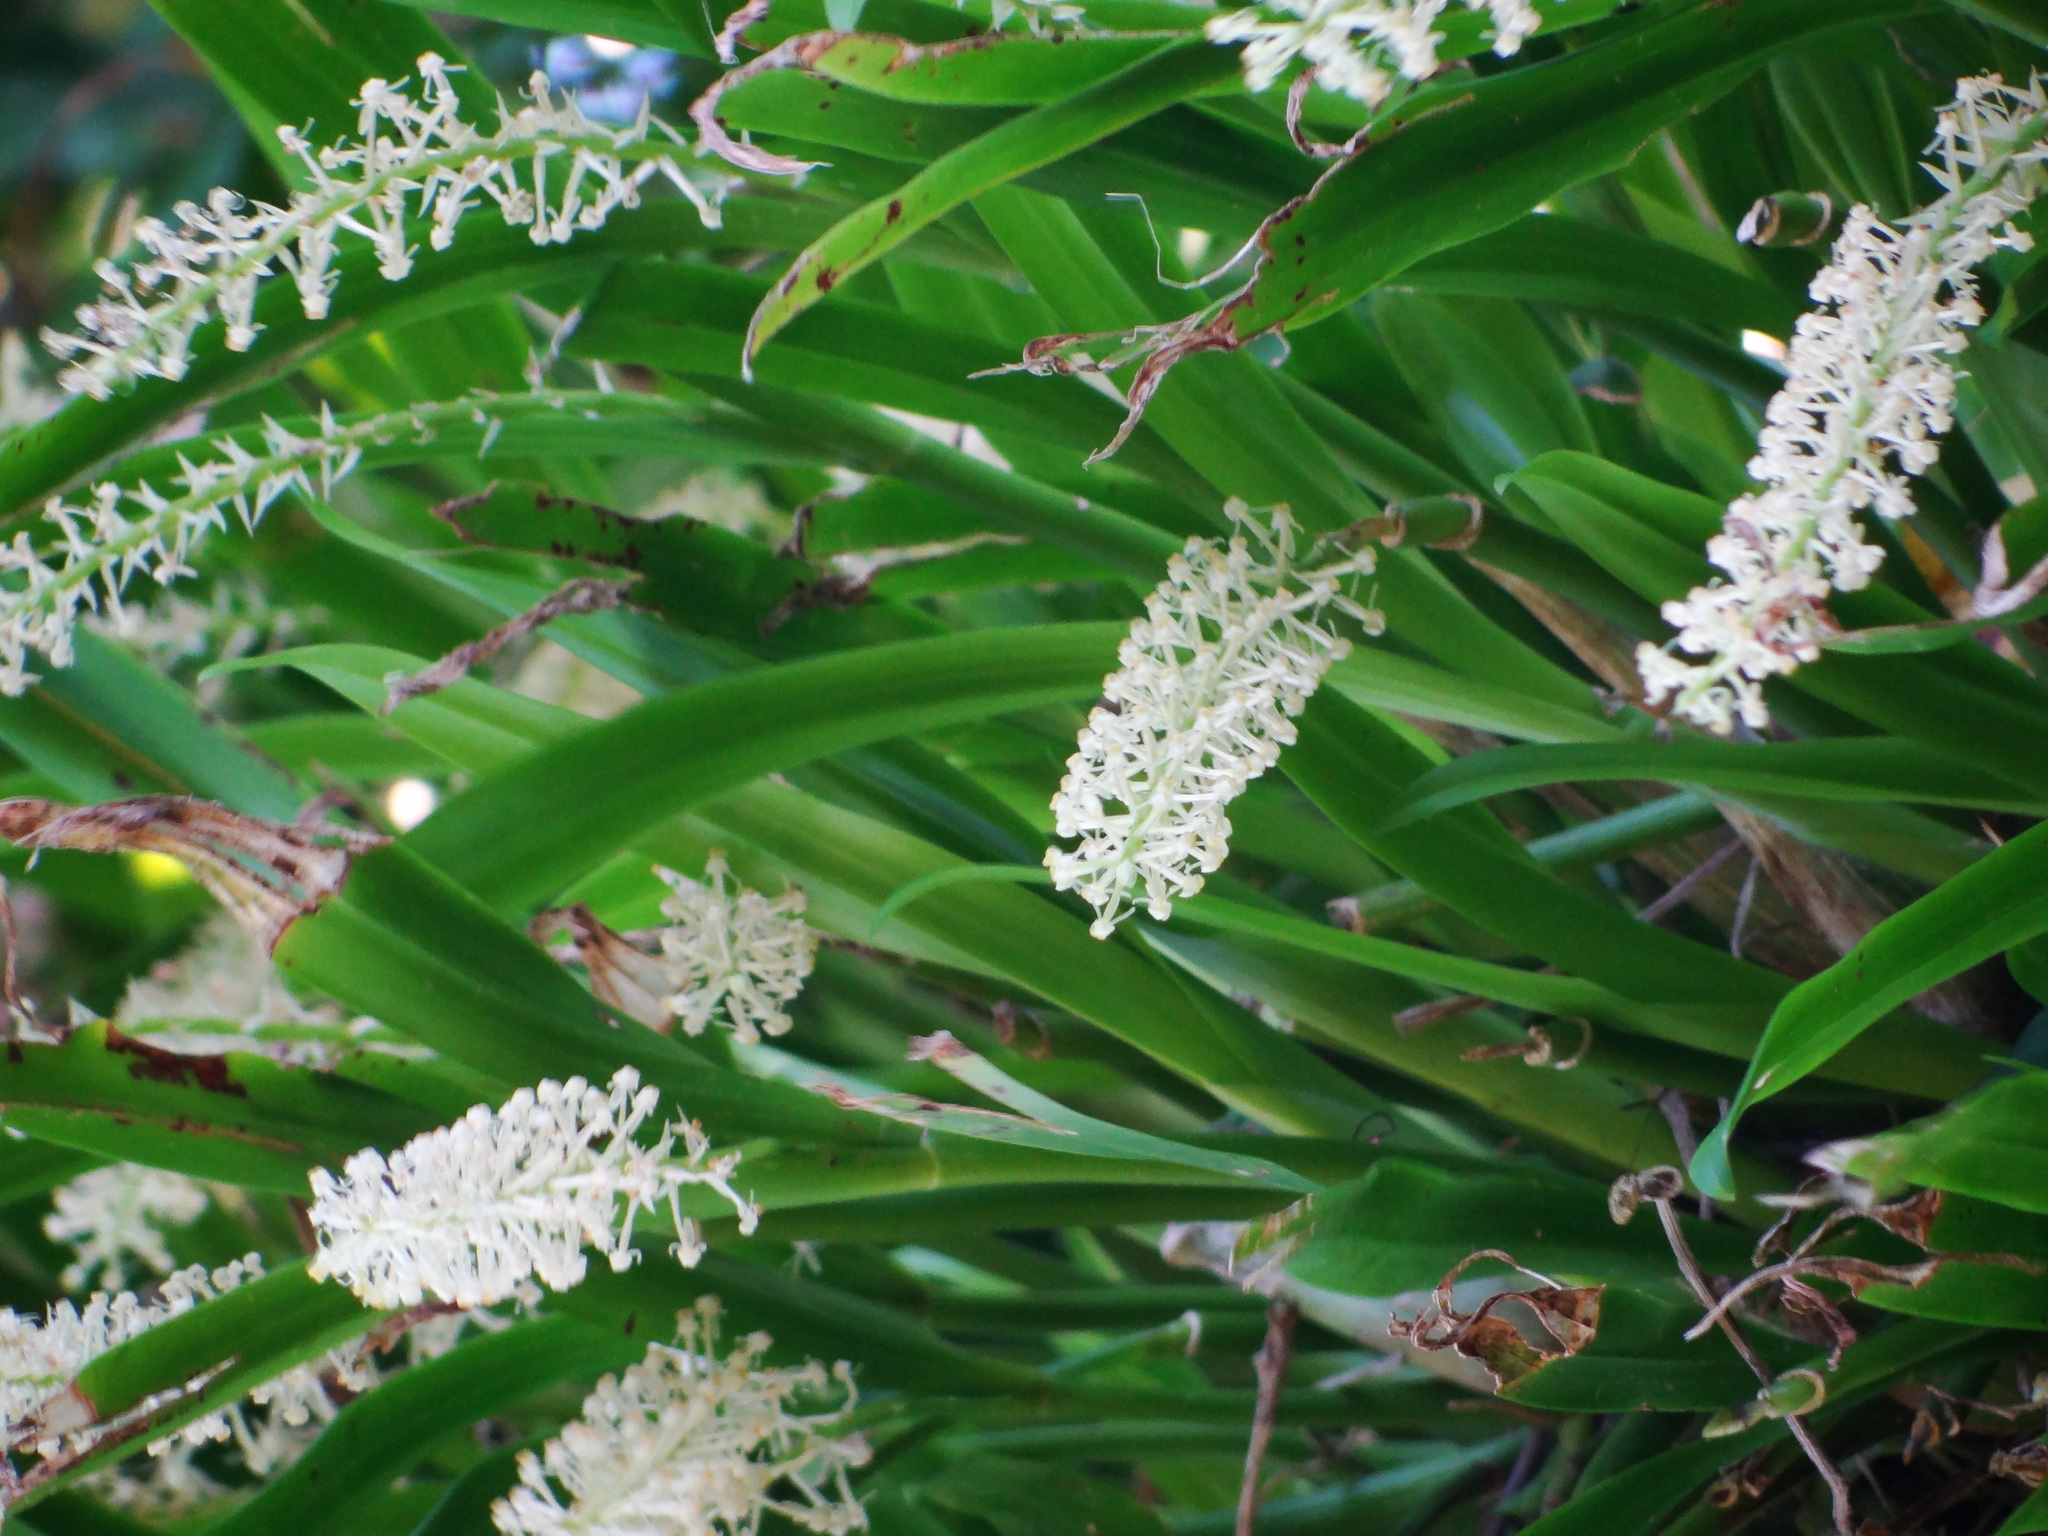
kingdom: Plantae
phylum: Tracheophyta
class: Liliopsida
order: Asparagales
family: Orchidaceae
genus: Liparis
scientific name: Liparis condylobulbon
